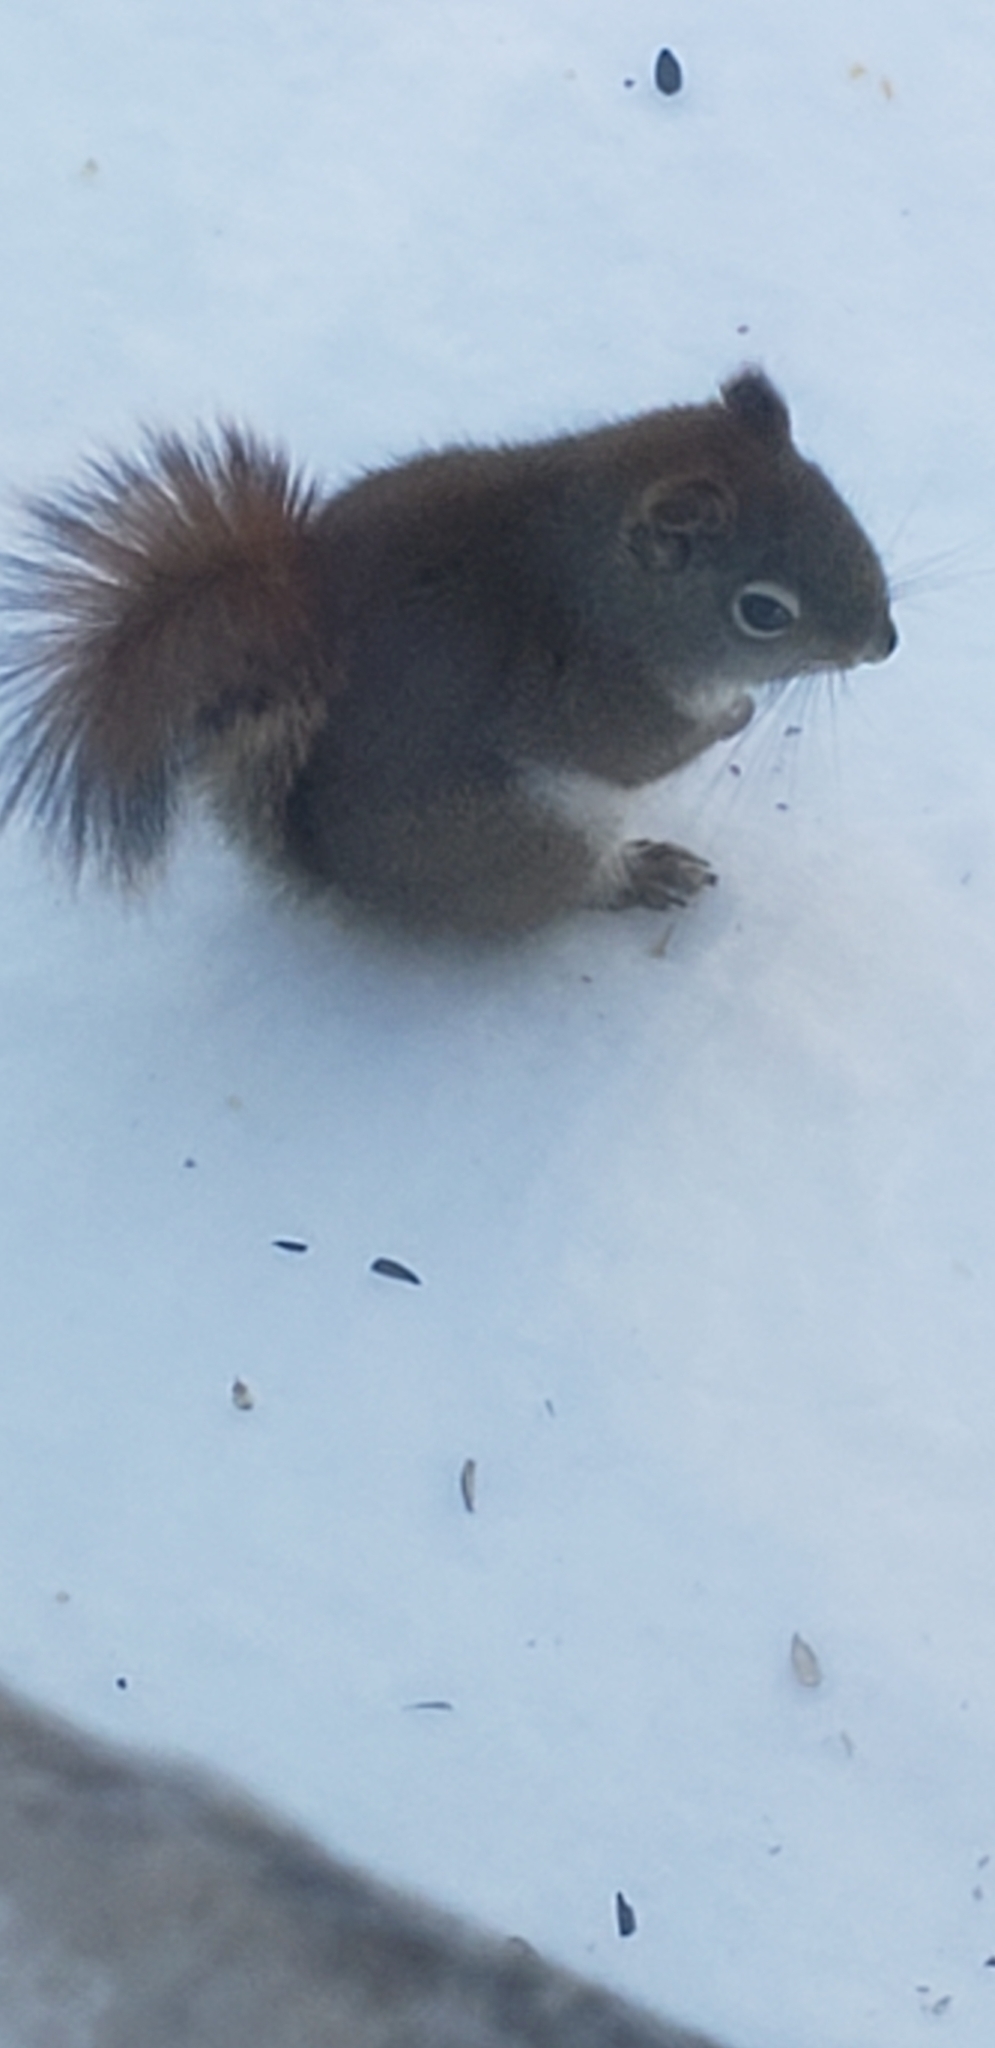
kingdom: Animalia
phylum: Chordata
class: Mammalia
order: Rodentia
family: Sciuridae
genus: Tamiasciurus
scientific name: Tamiasciurus hudsonicus
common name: Red squirrel
